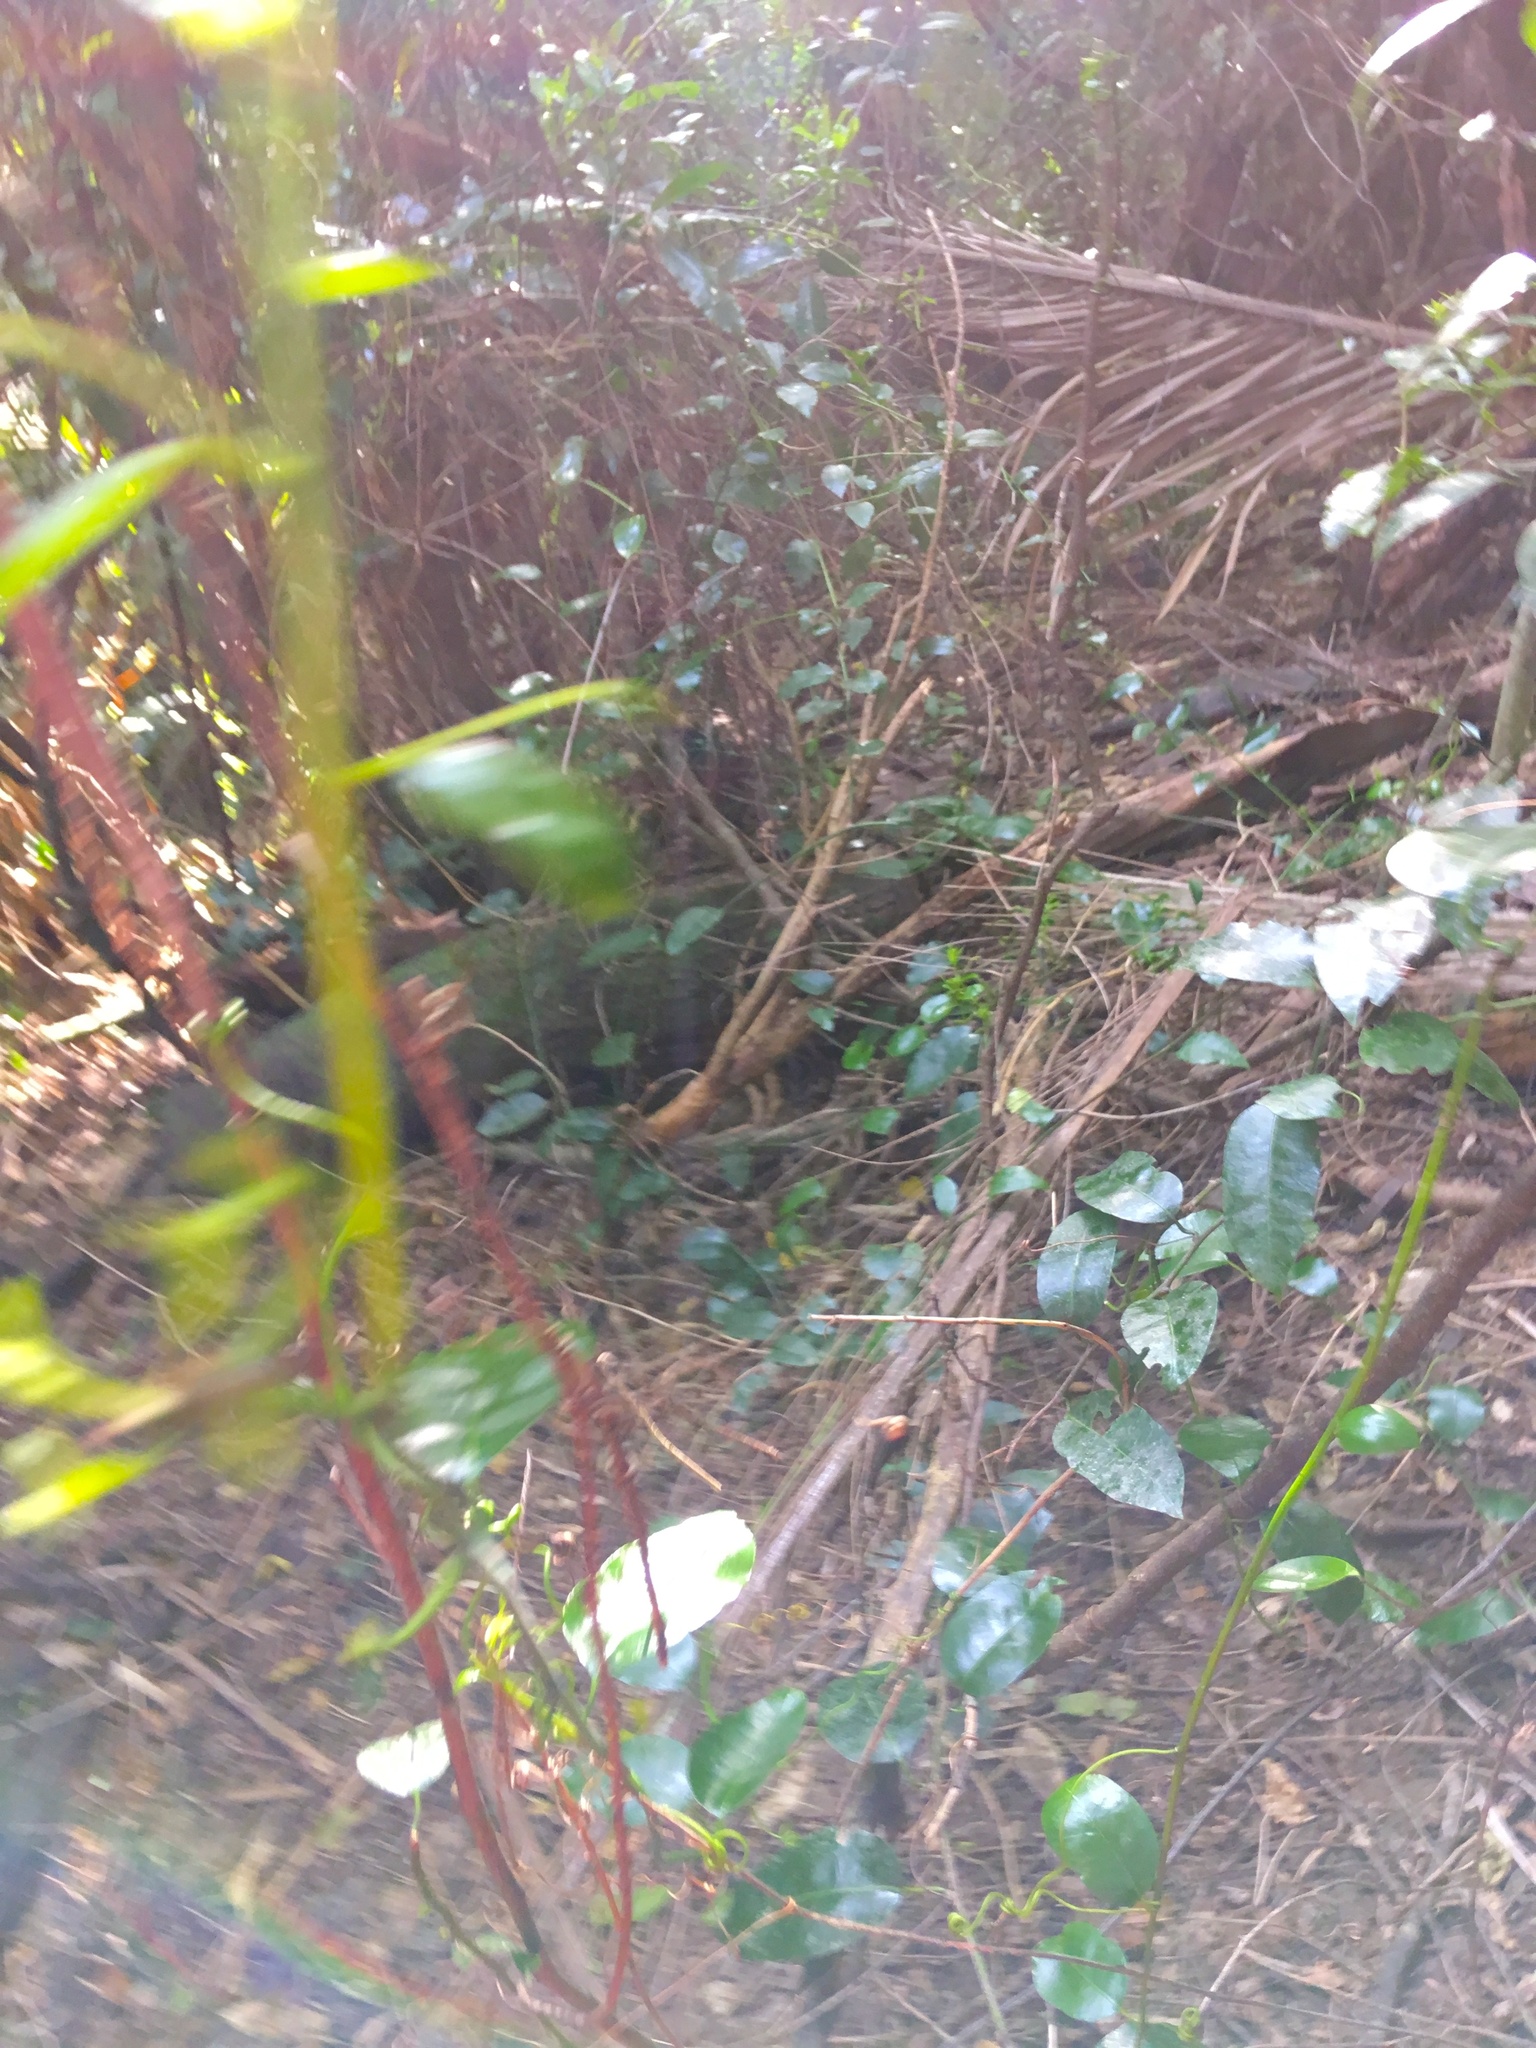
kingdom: Plantae
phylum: Tracheophyta
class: Magnoliopsida
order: Malpighiales
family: Passifloraceae
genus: Passiflora
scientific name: Passiflora tetrandra
